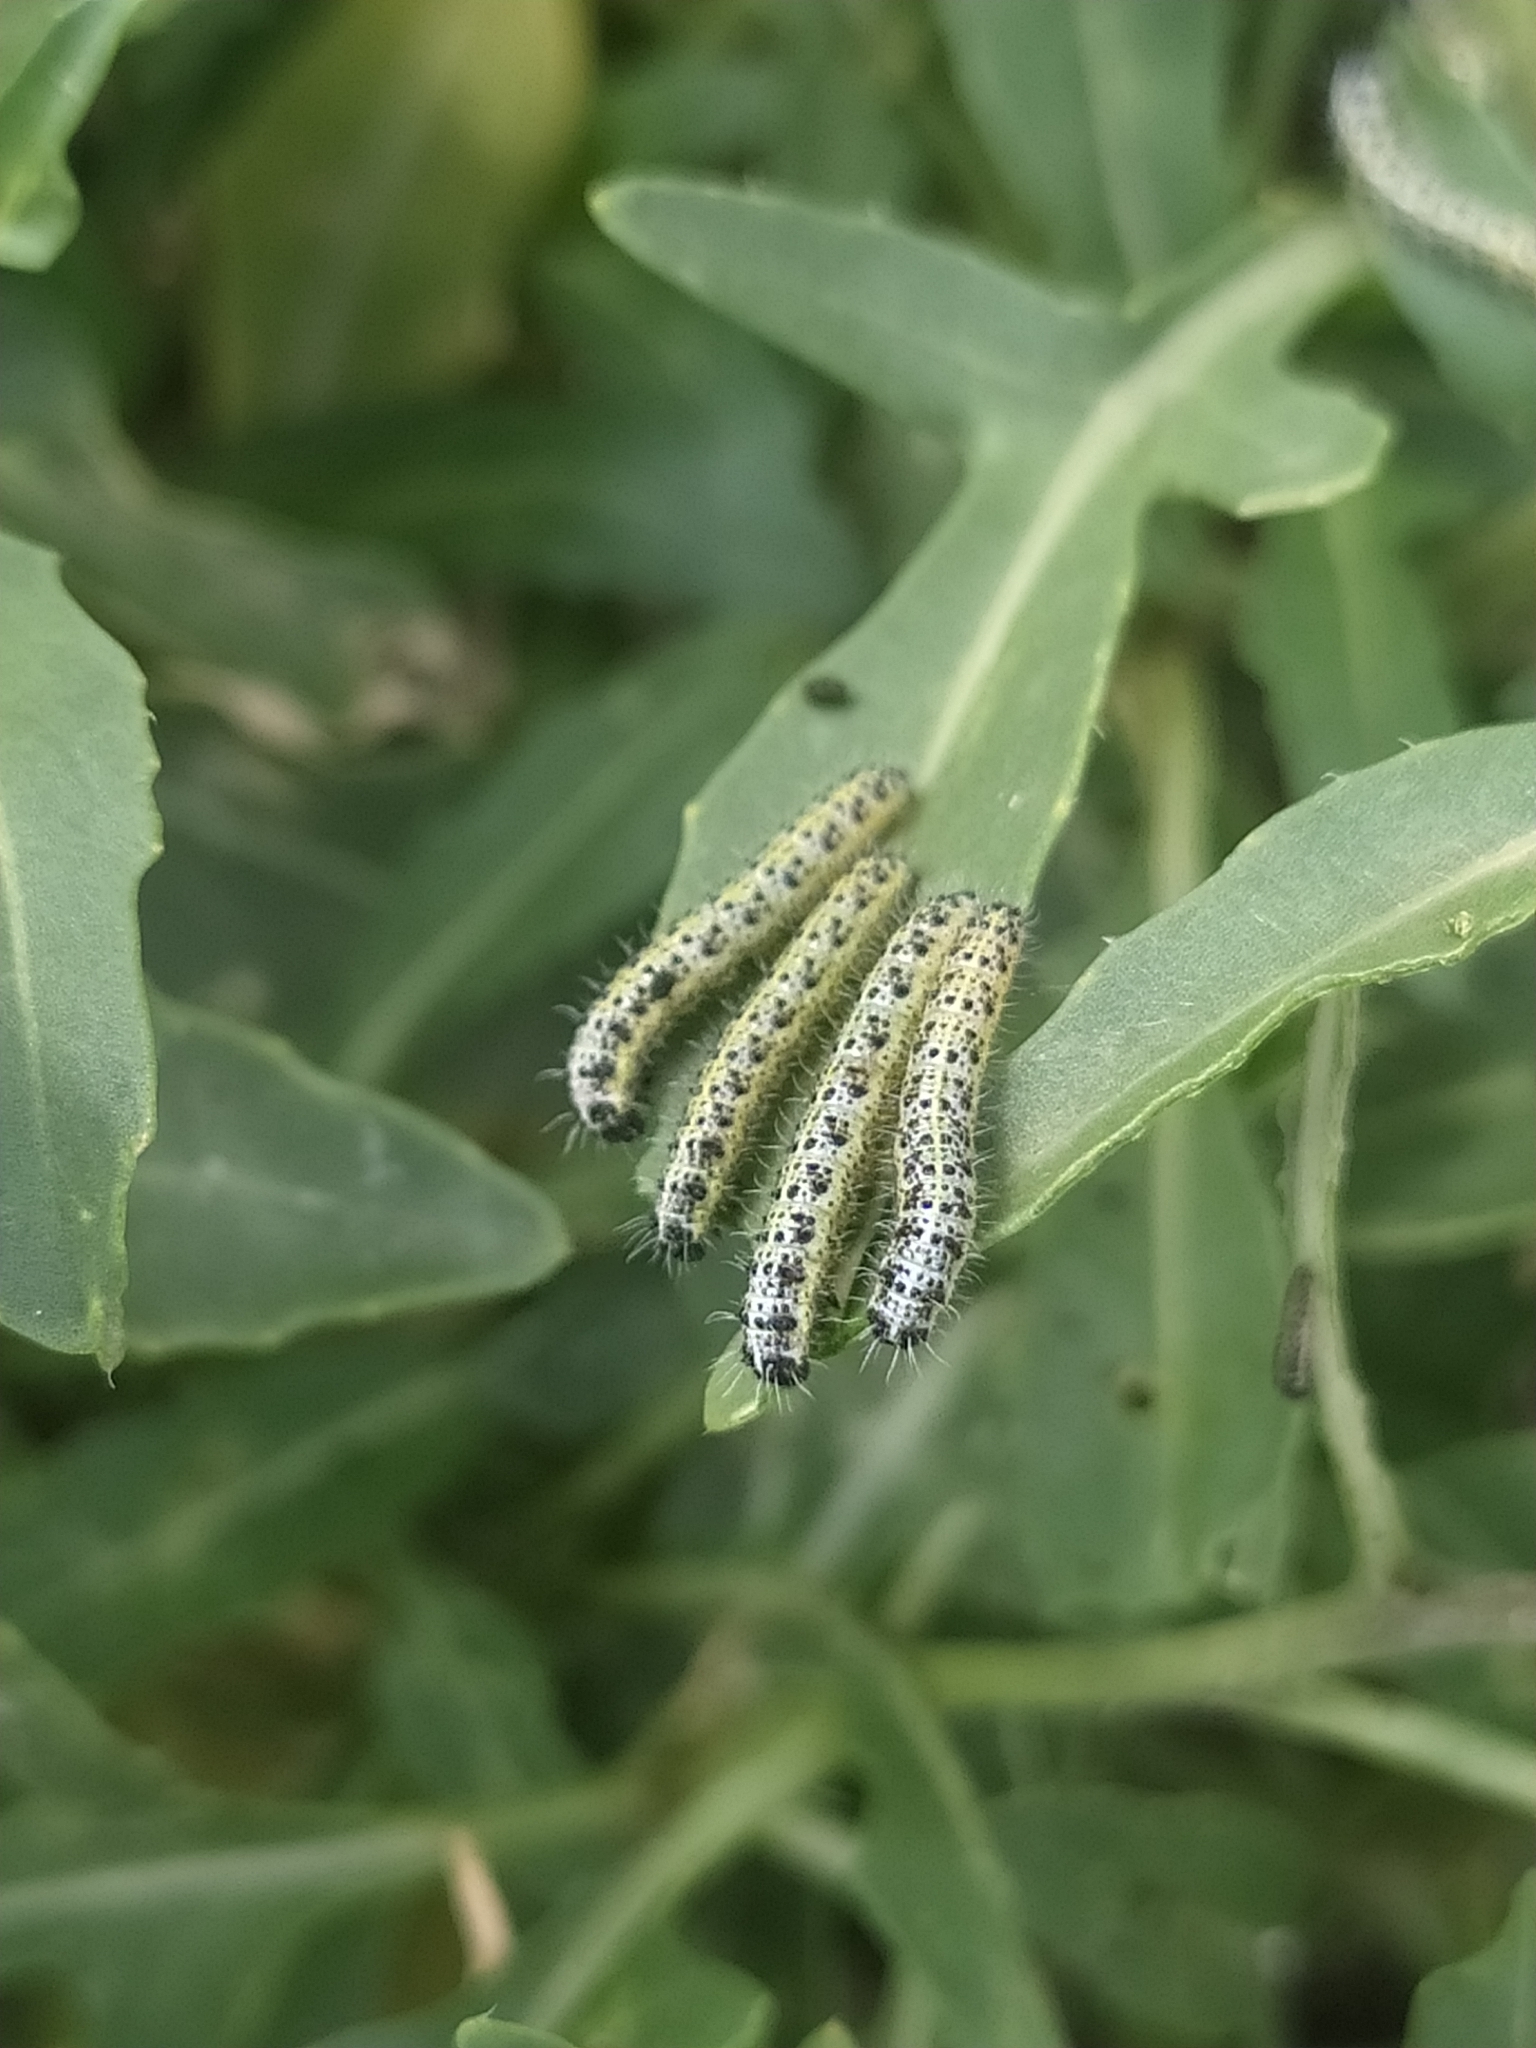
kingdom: Animalia
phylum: Arthropoda
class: Insecta
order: Lepidoptera
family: Pieridae
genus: Pieris
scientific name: Pieris brassicae
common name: Large white
